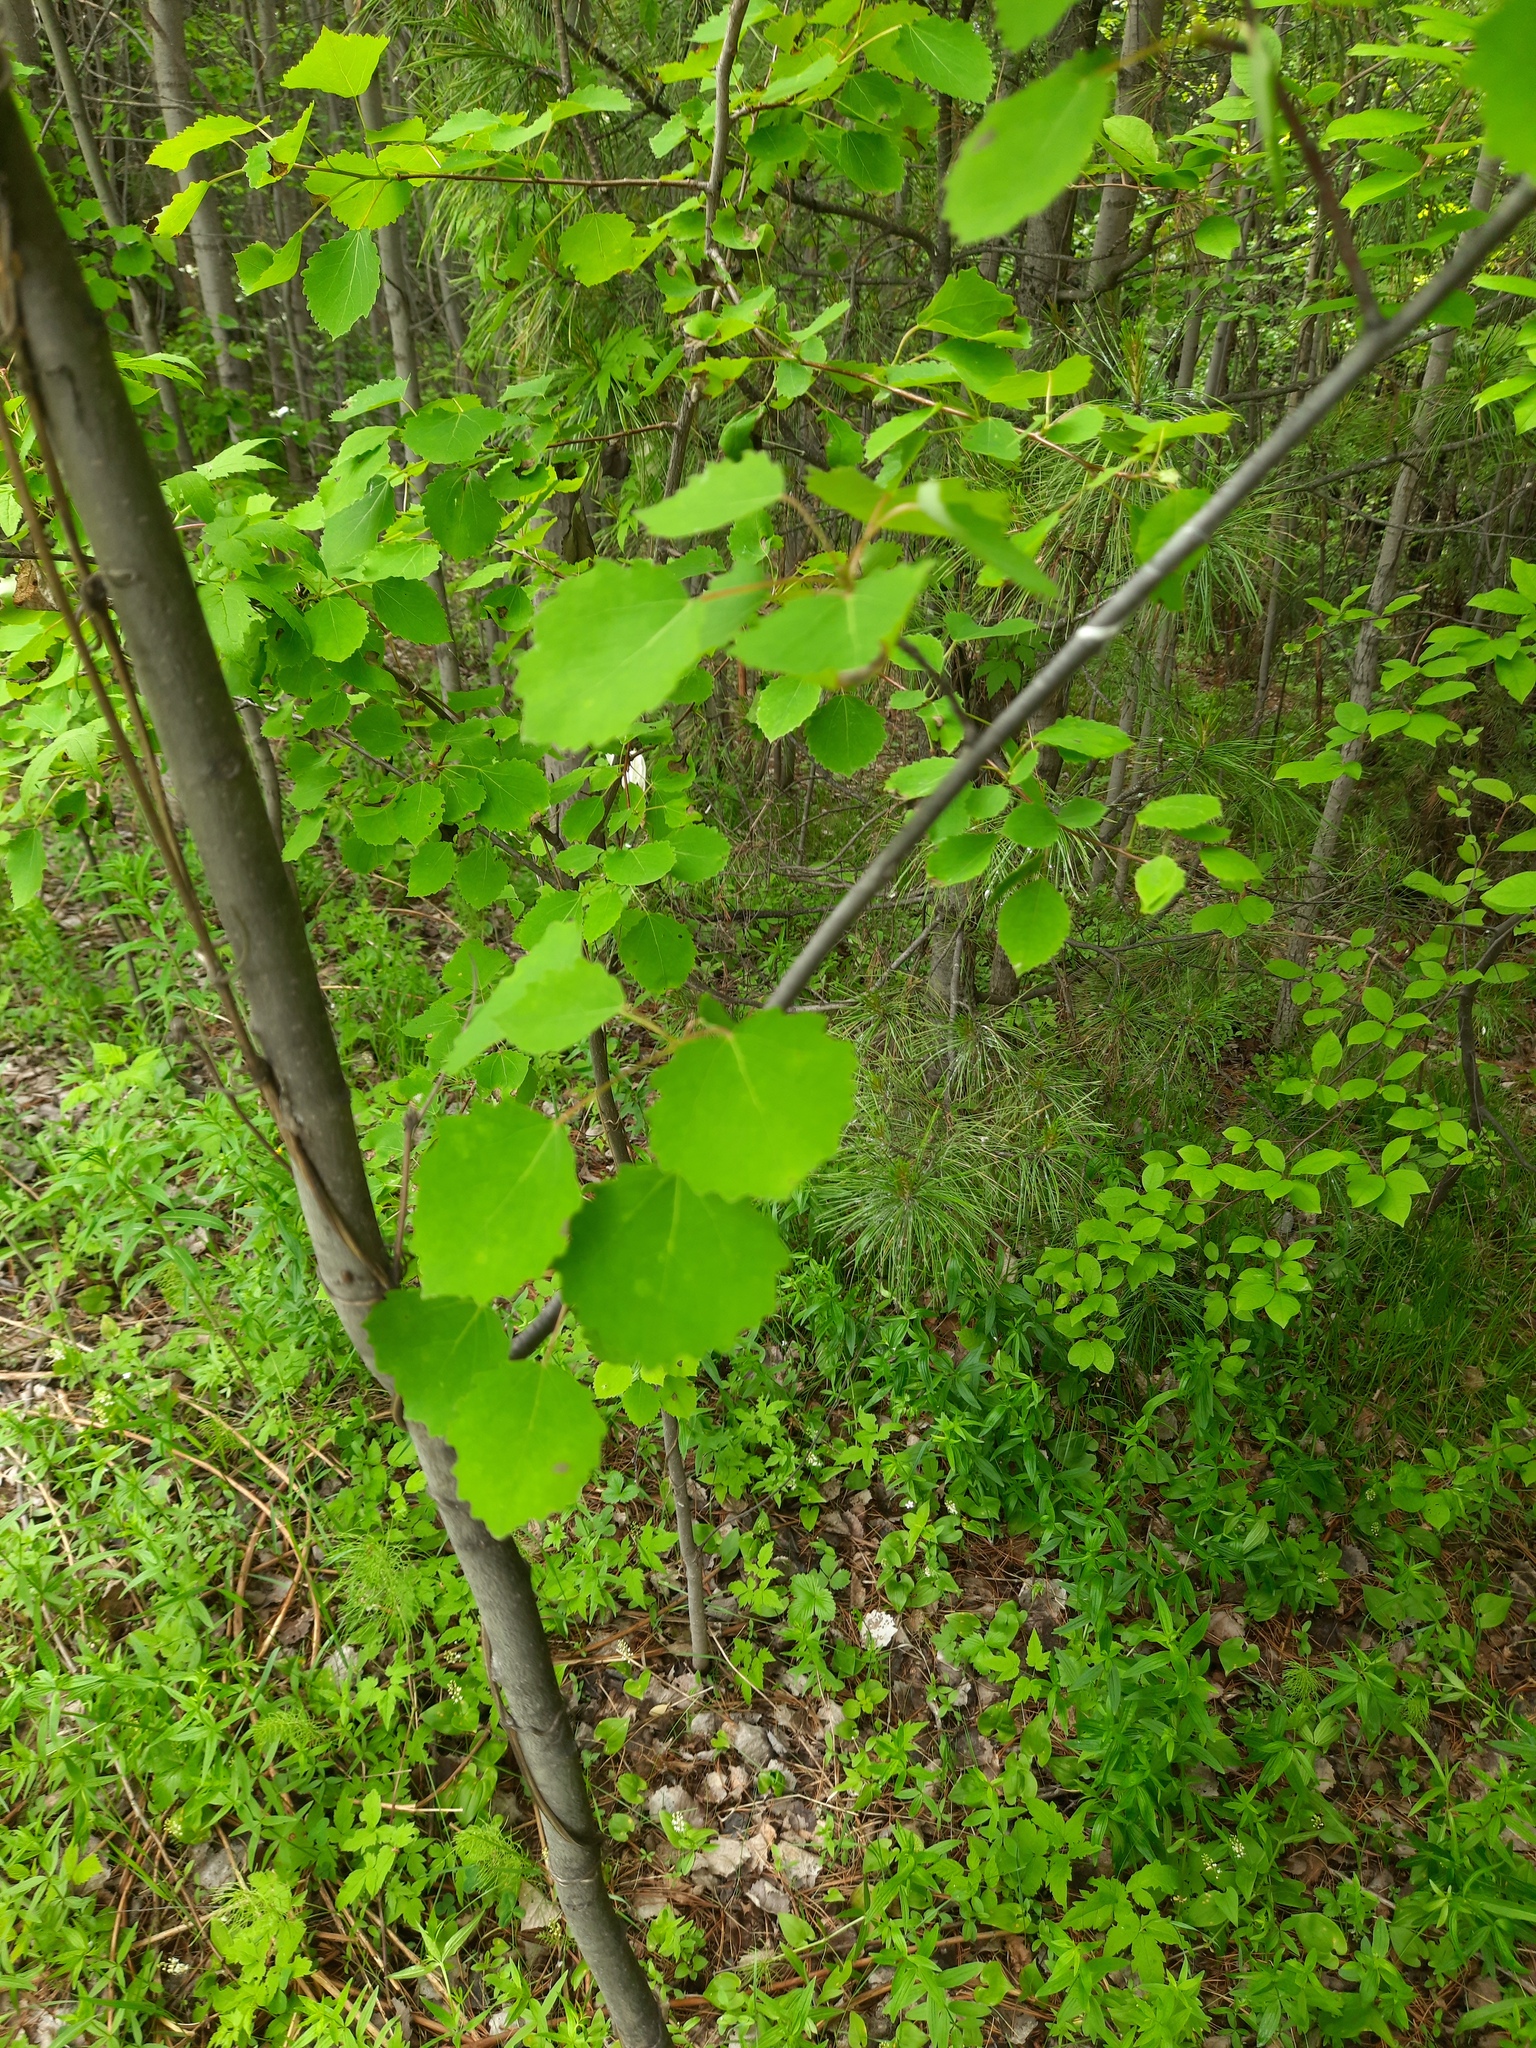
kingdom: Plantae
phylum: Tracheophyta
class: Magnoliopsida
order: Malpighiales
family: Salicaceae
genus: Populus
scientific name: Populus tremula
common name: European aspen
